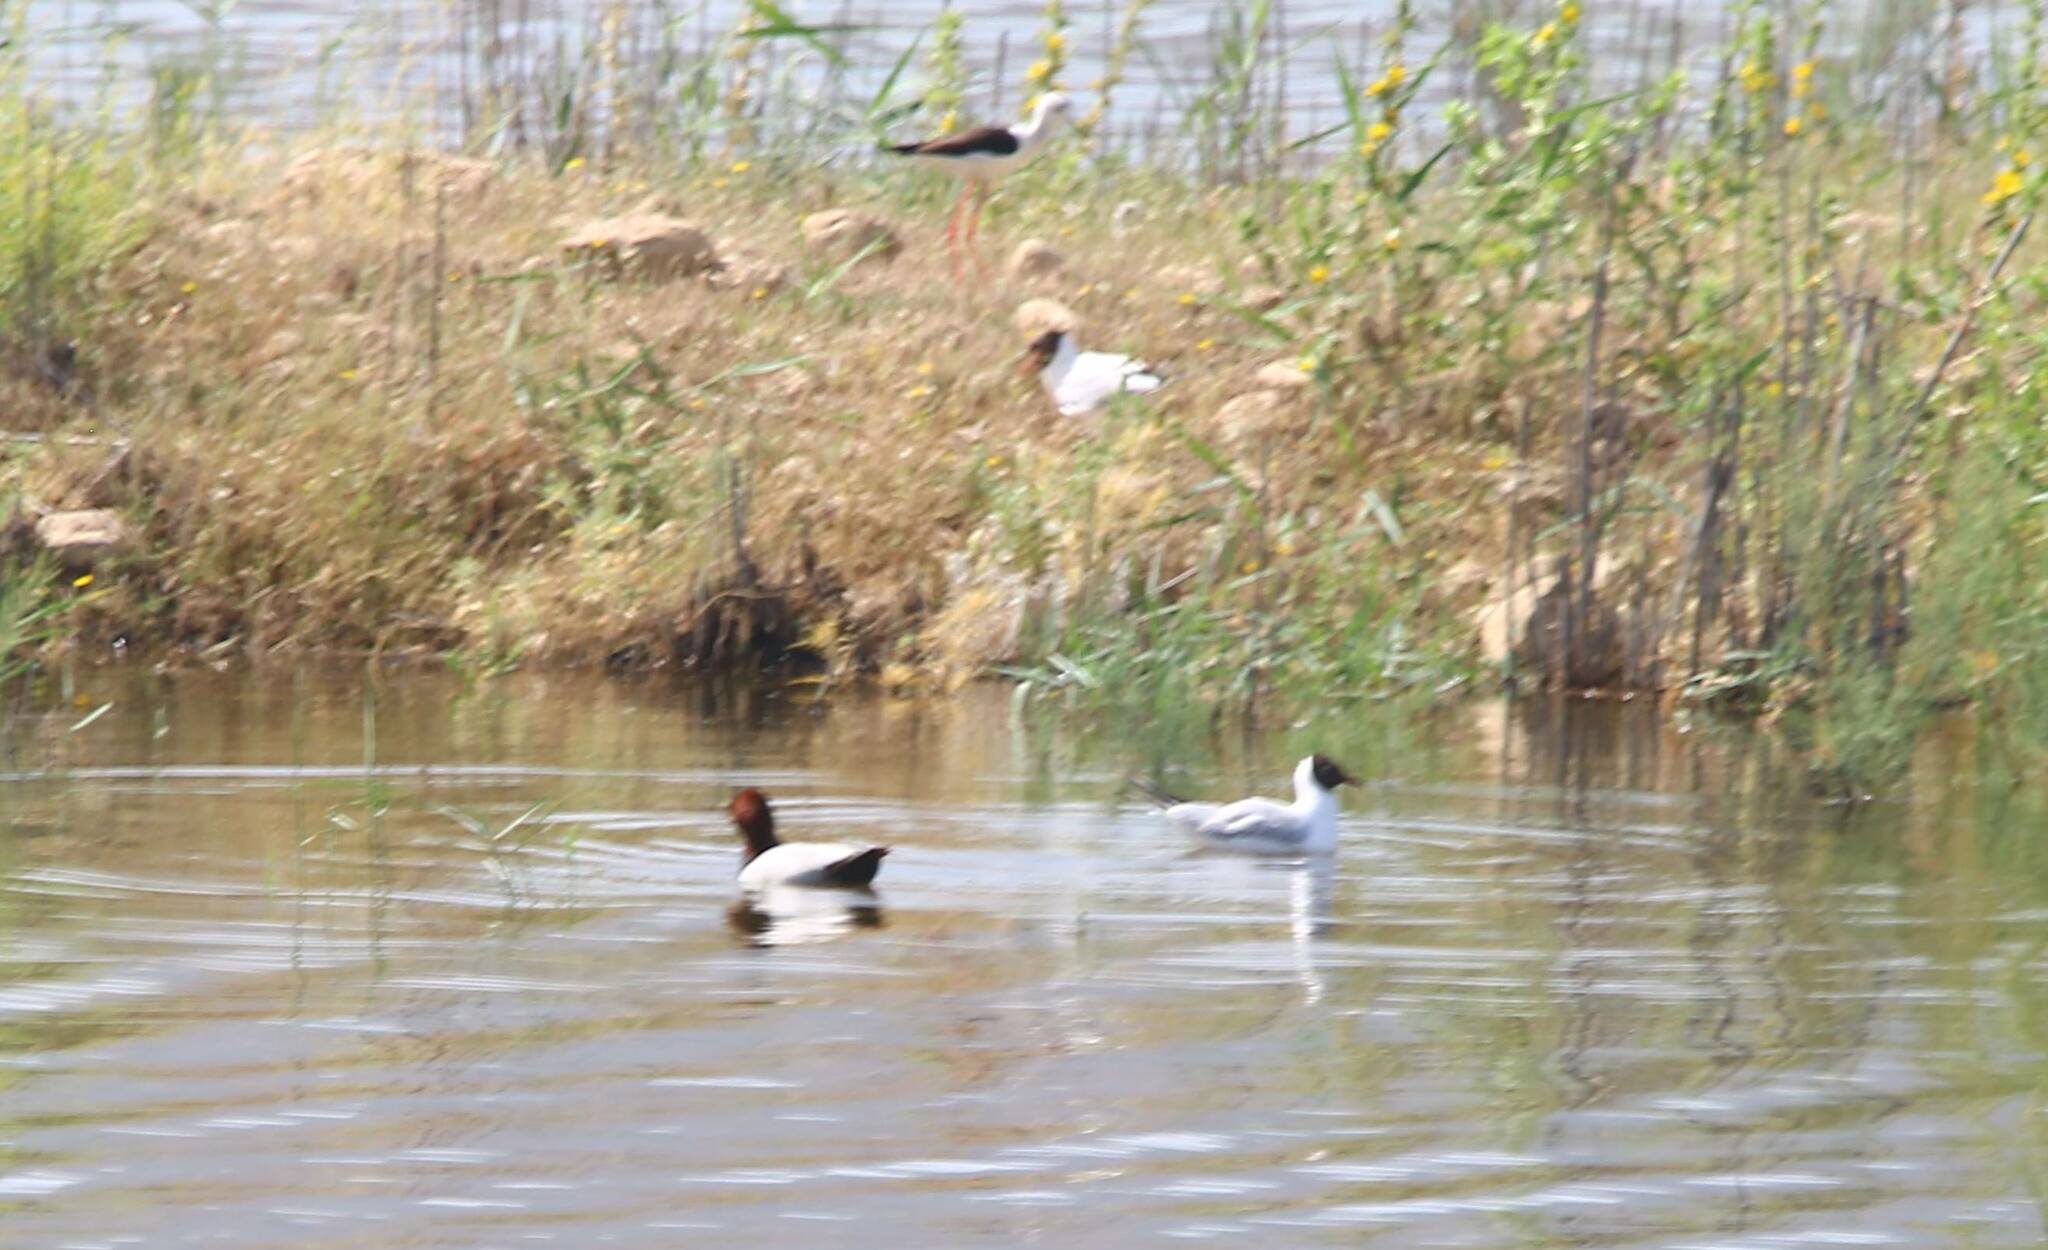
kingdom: Animalia
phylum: Chordata
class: Aves
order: Anseriformes
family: Anatidae
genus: Aythya
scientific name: Aythya ferina
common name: Common pochard
